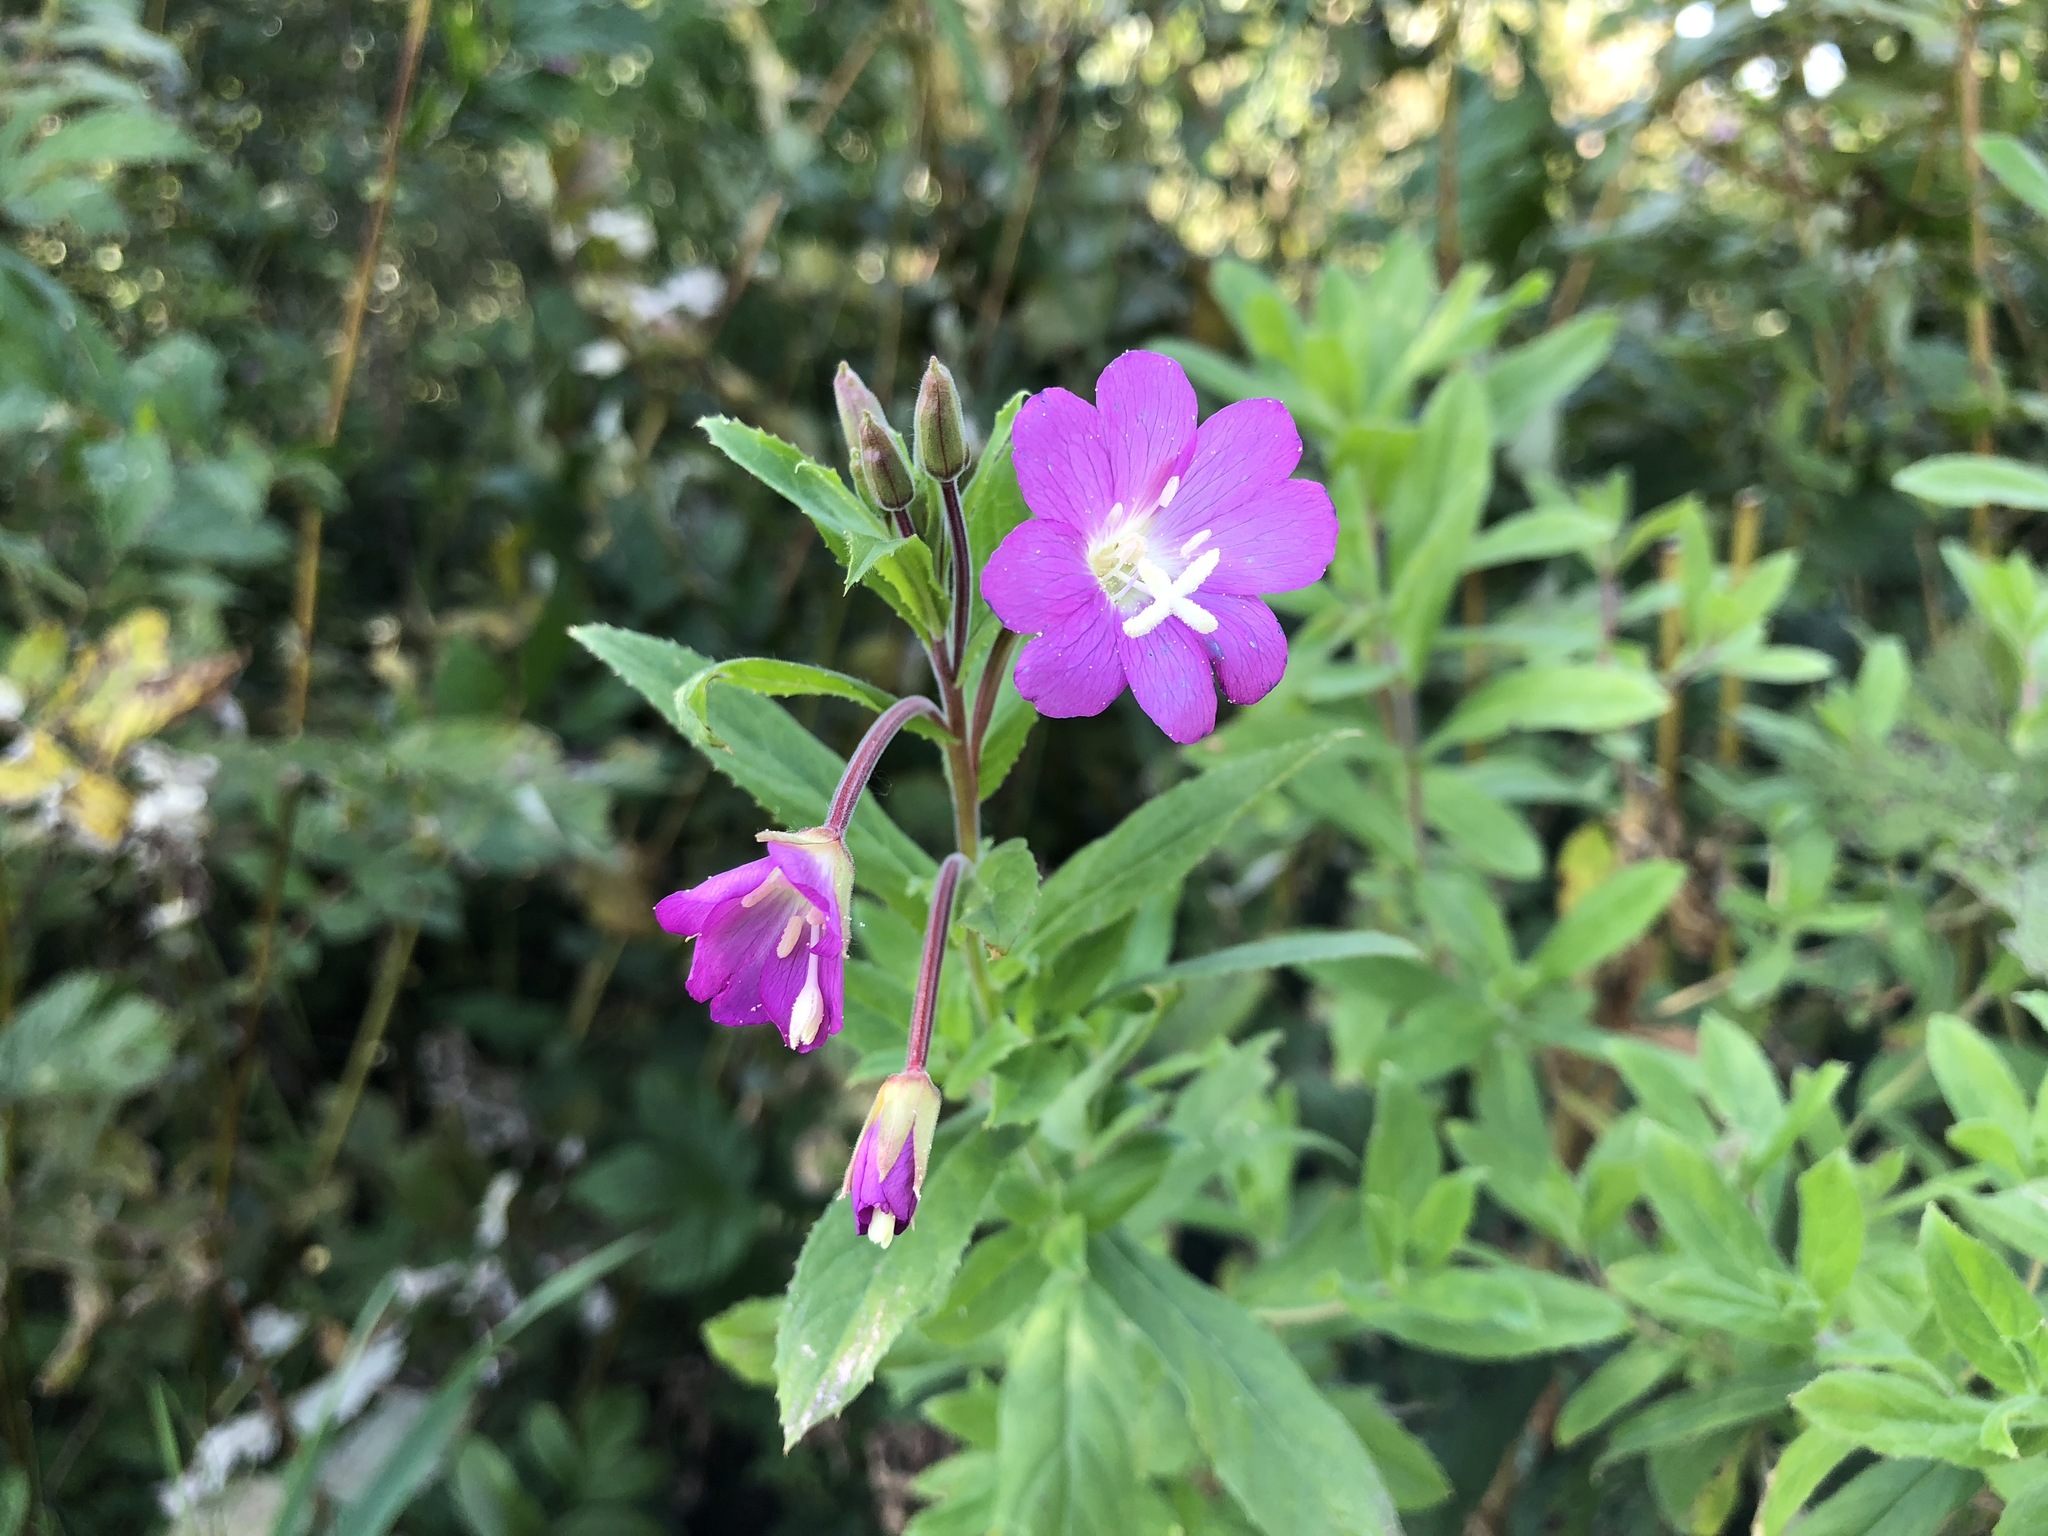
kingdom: Plantae
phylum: Tracheophyta
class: Magnoliopsida
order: Myrtales
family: Onagraceae
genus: Epilobium
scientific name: Epilobium hirsutum
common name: Great willowherb
